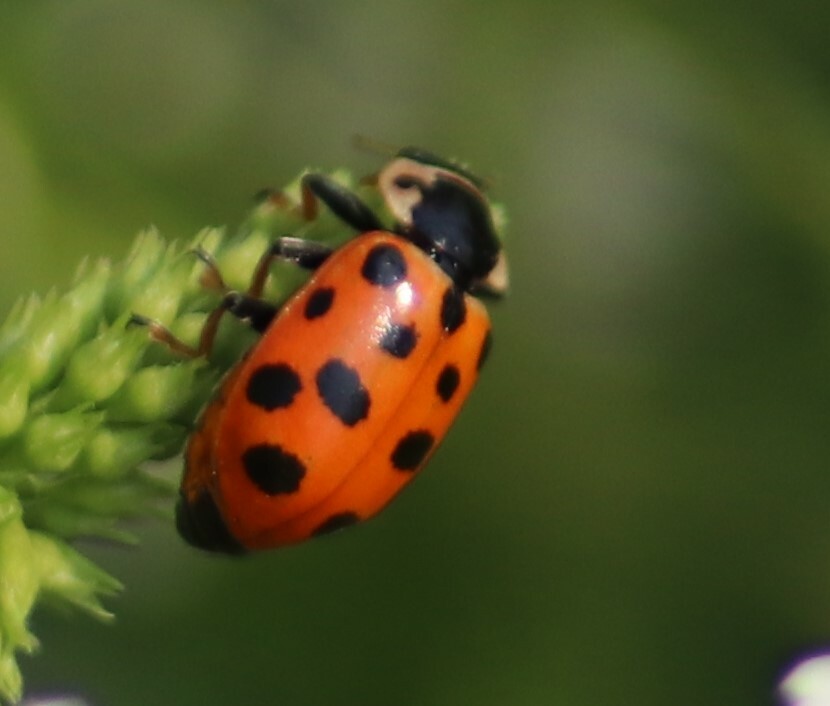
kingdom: Animalia
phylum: Arthropoda
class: Insecta
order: Coleoptera
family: Coccinellidae
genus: Hippodamia
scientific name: Hippodamia tredecimpunctata
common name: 13-spot ladybird
